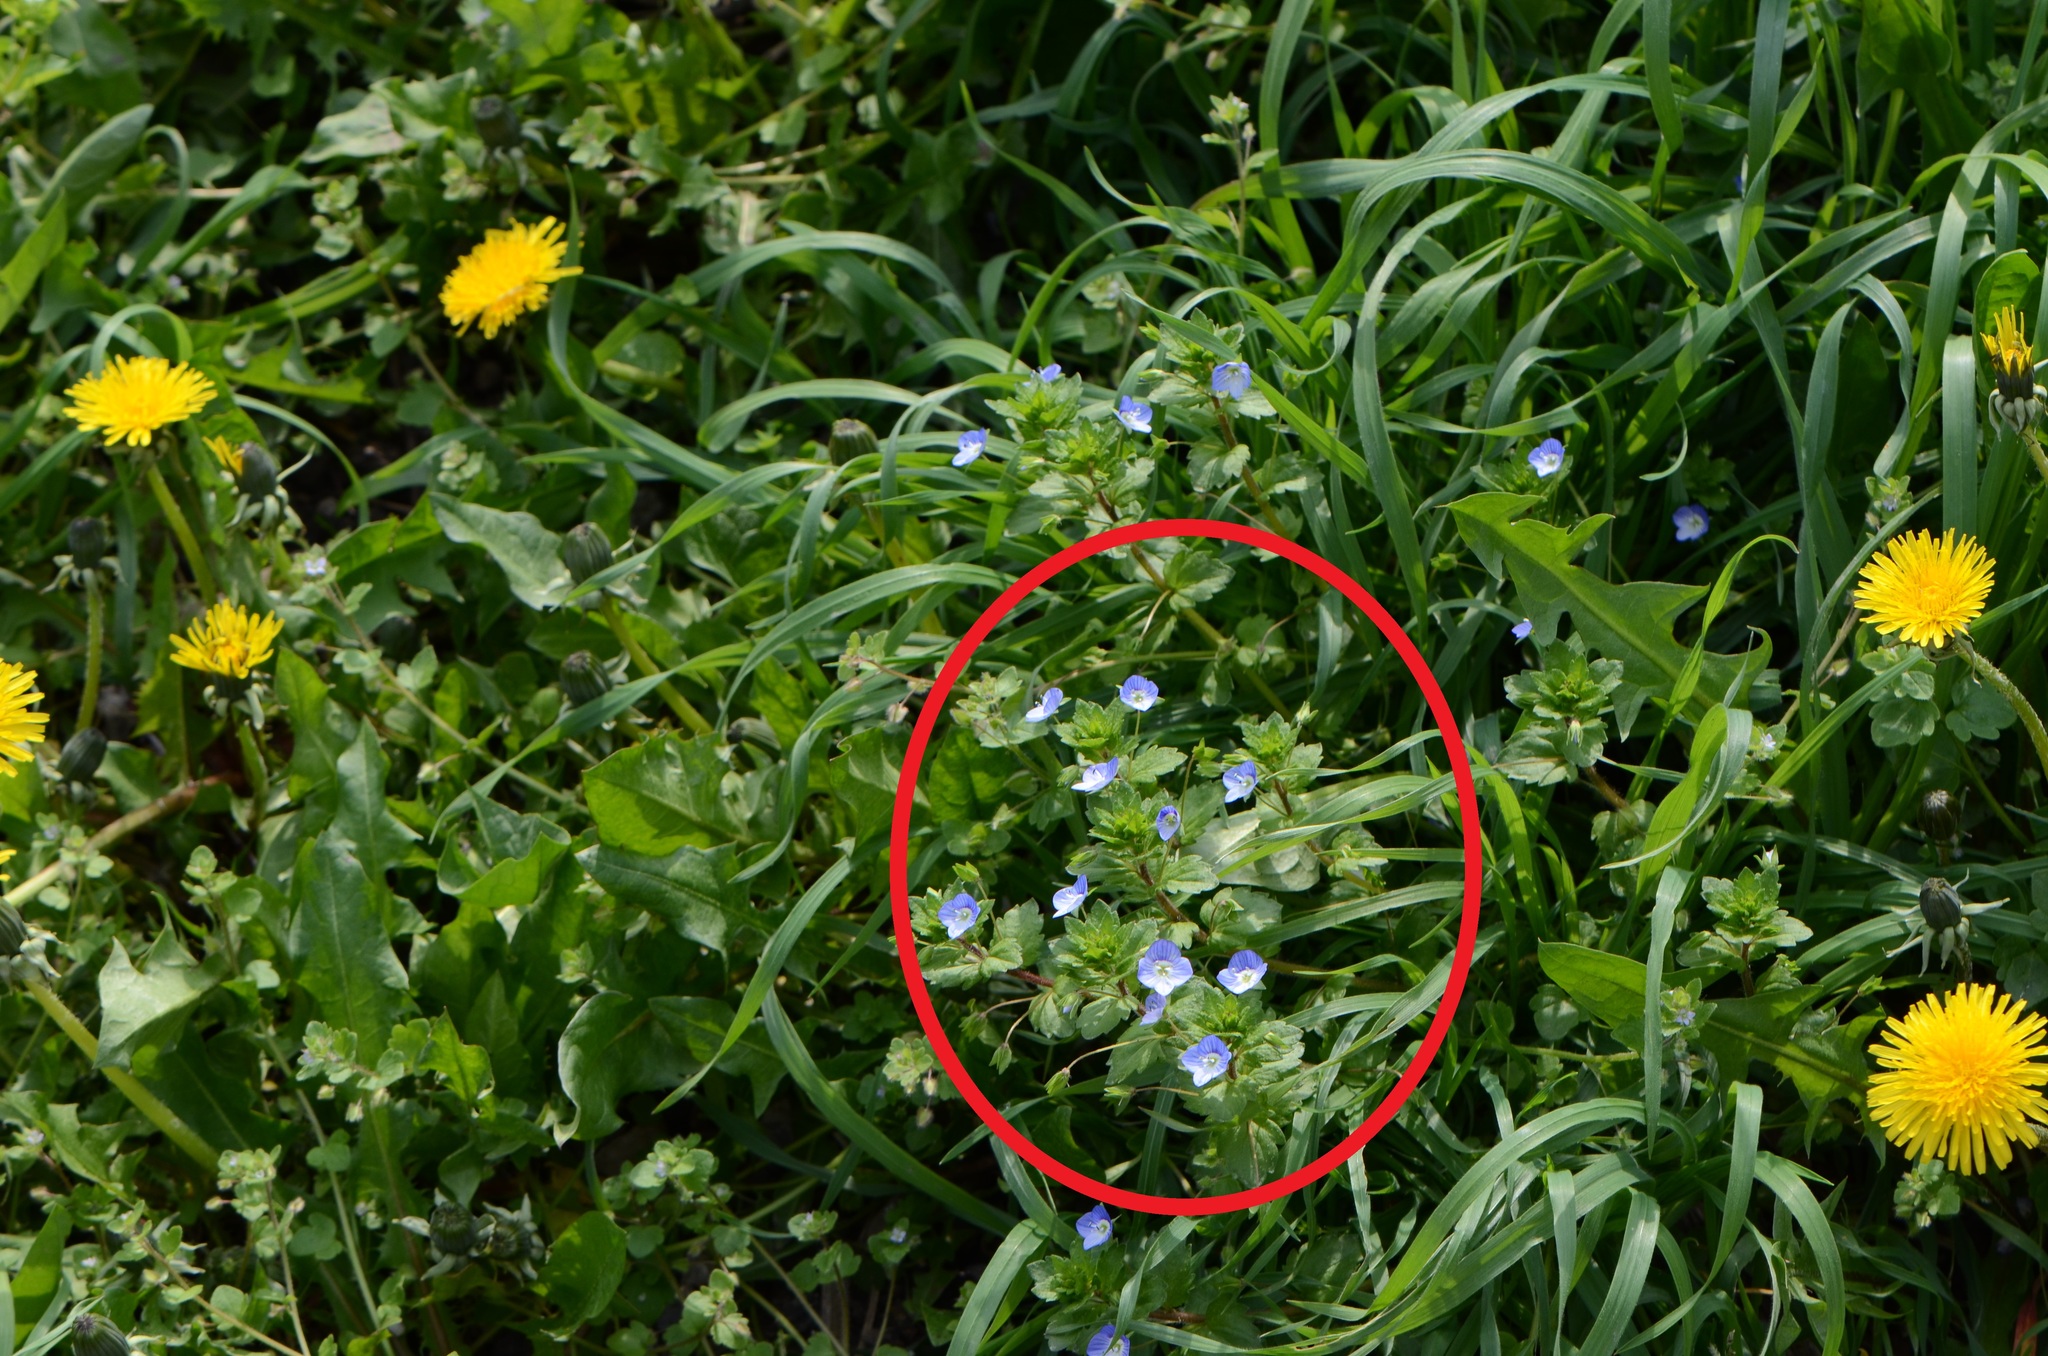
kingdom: Plantae
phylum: Tracheophyta
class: Magnoliopsida
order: Lamiales
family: Plantaginaceae
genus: Veronica
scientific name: Veronica persica
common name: Common field-speedwell
